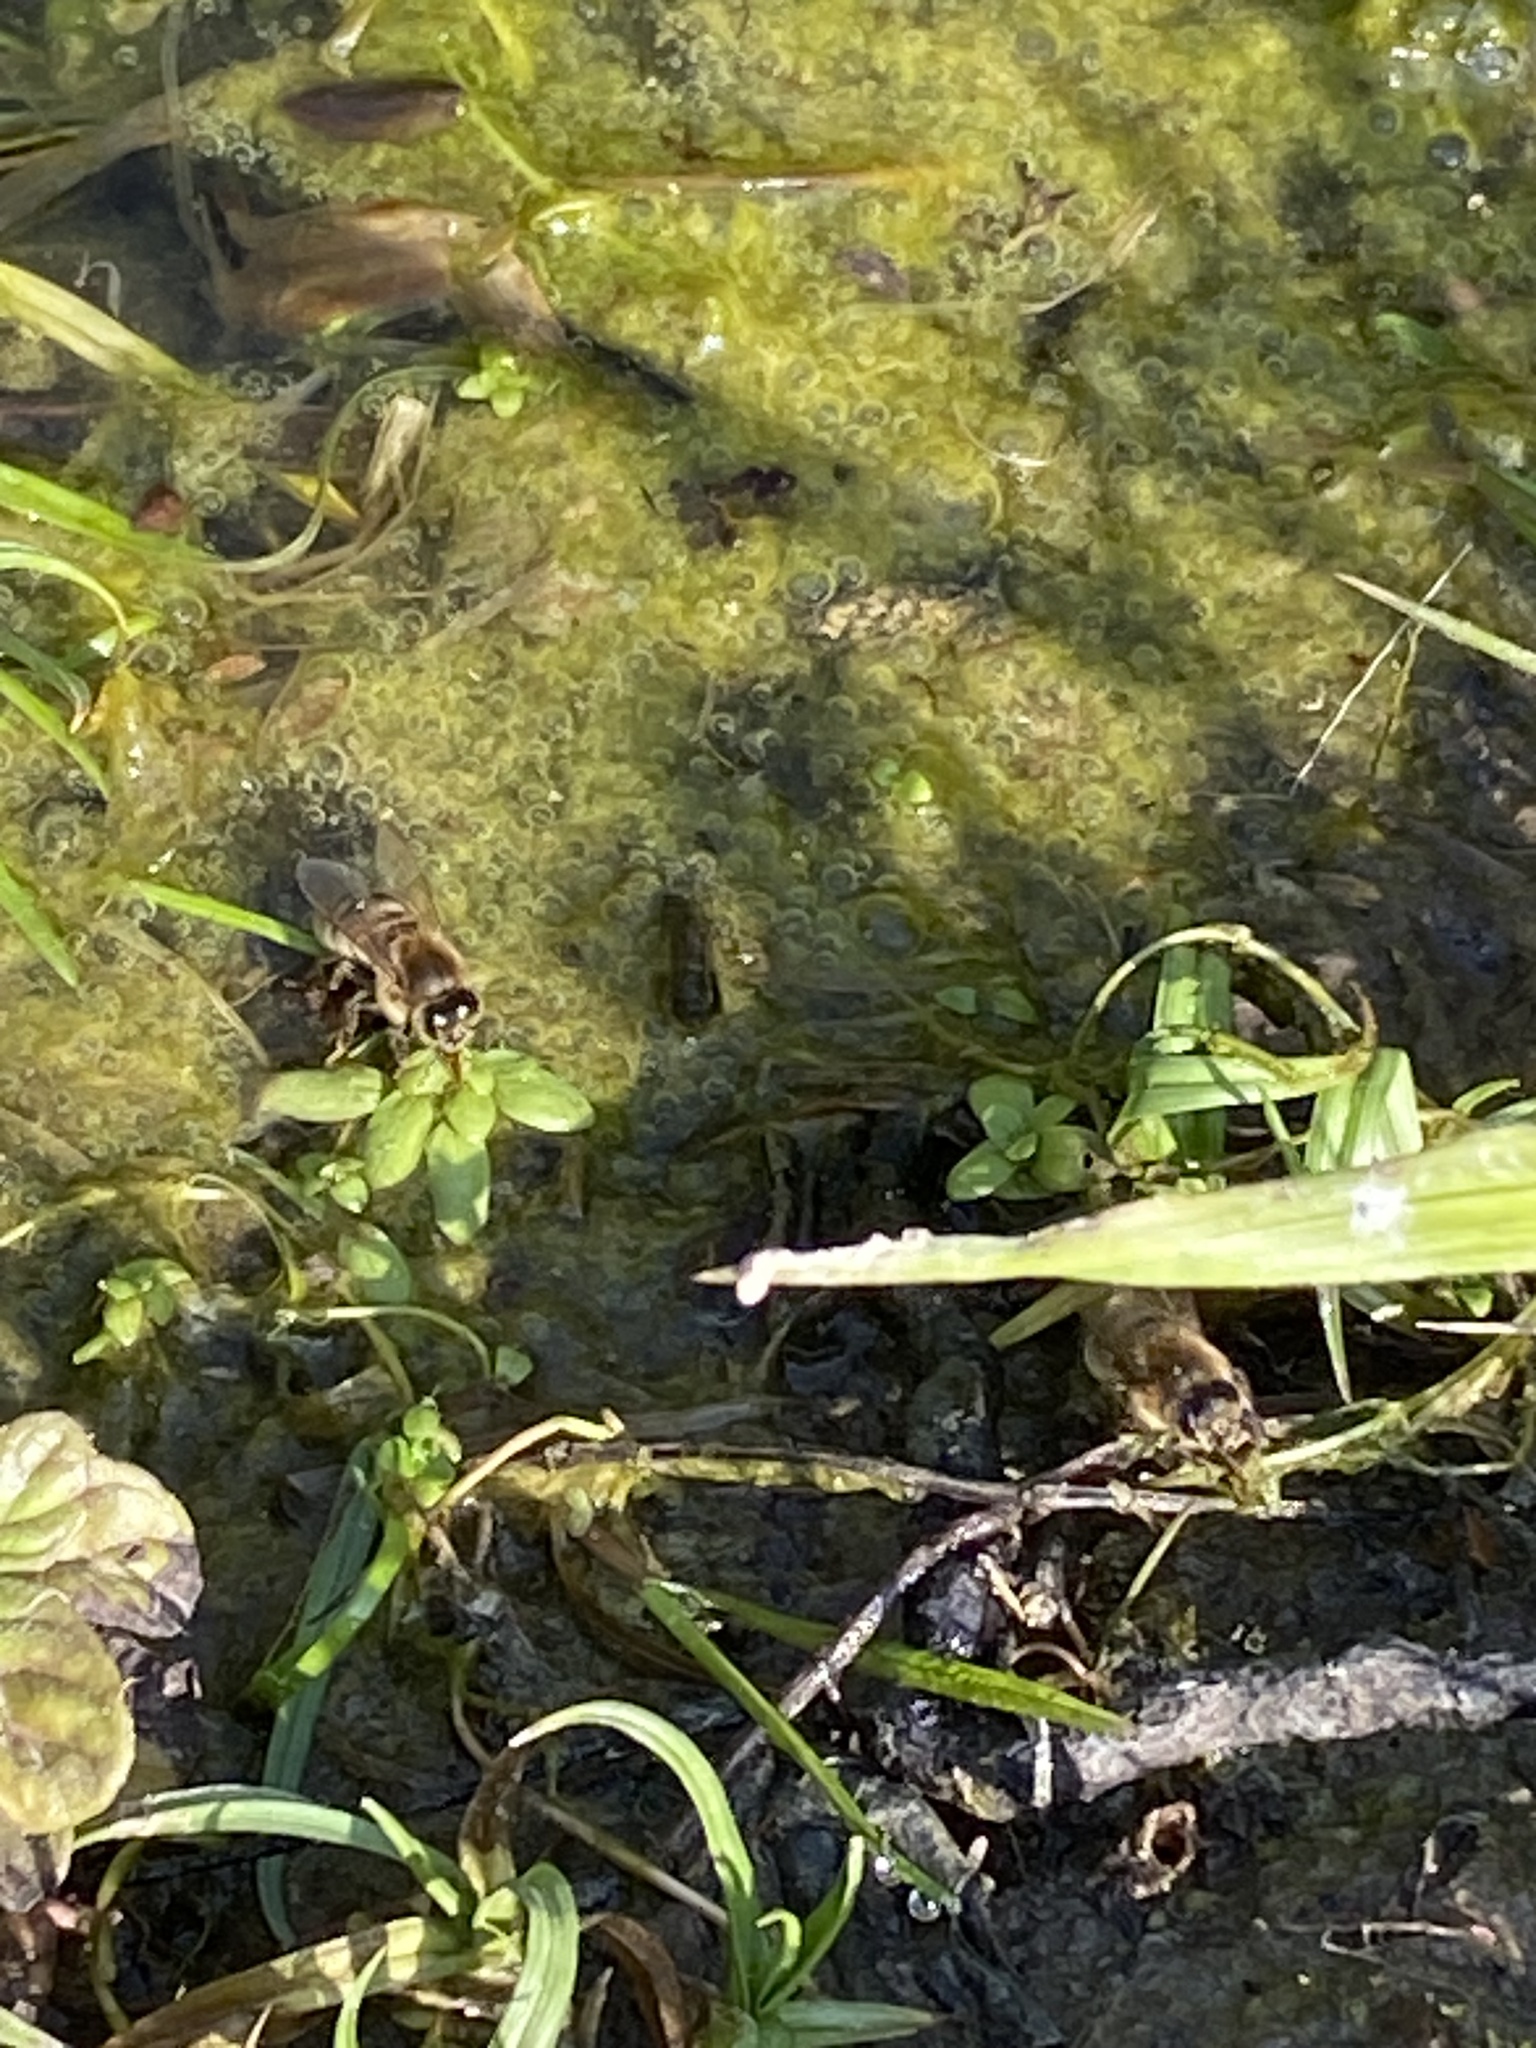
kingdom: Animalia
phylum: Arthropoda
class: Insecta
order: Hymenoptera
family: Apidae
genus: Apis
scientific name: Apis mellifera
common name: Honey bee
